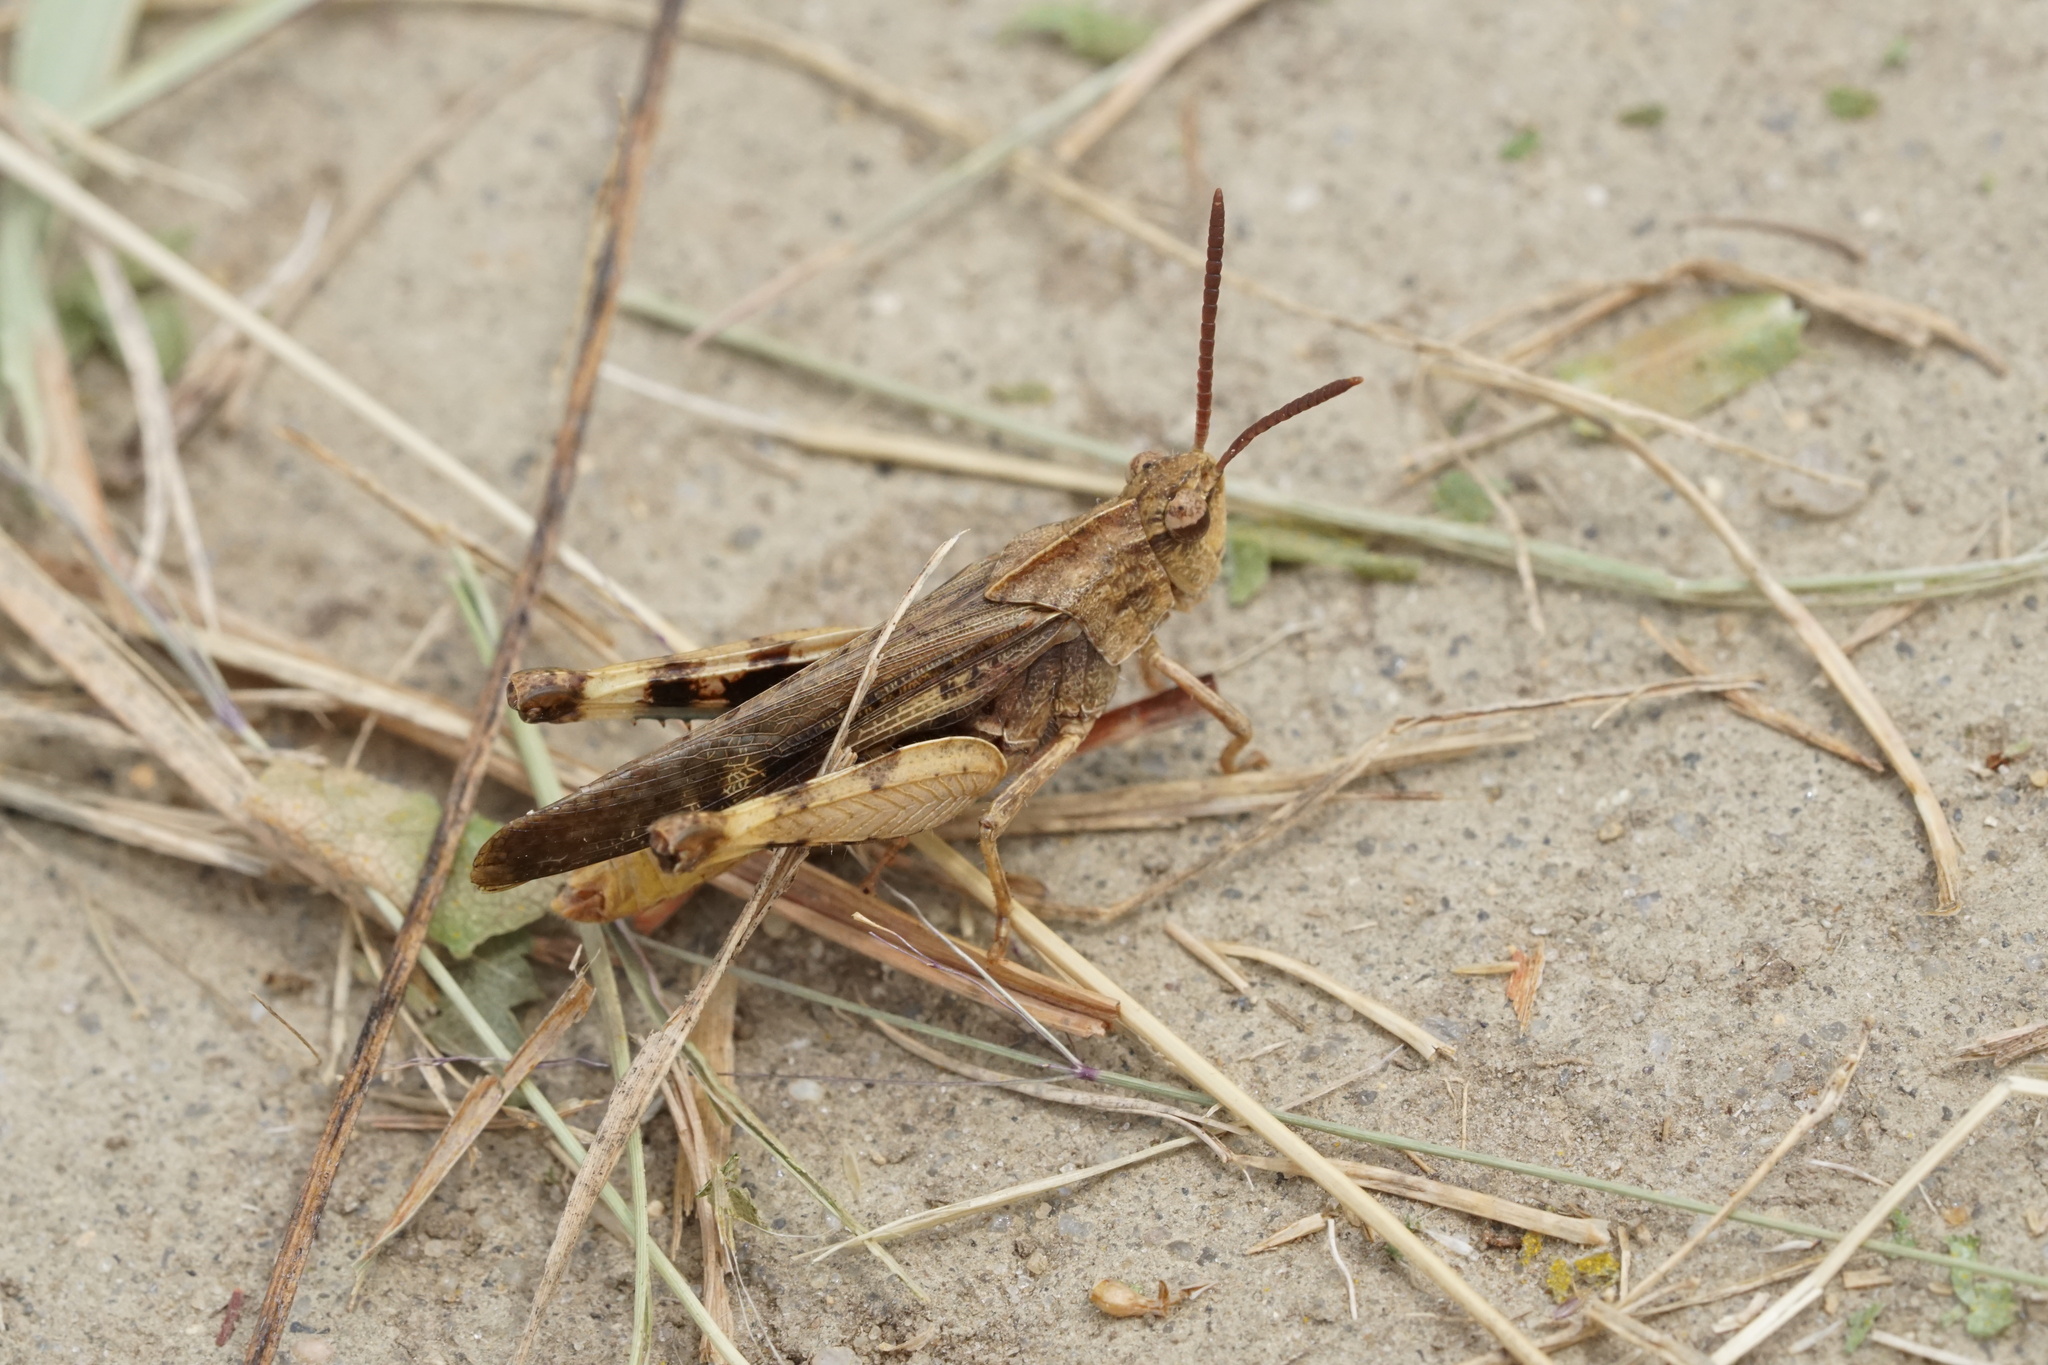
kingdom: Animalia
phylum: Arthropoda
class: Insecta
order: Orthoptera
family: Acrididae
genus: Chortophaga
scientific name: Chortophaga viridifasciata
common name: Green-striped grasshopper
